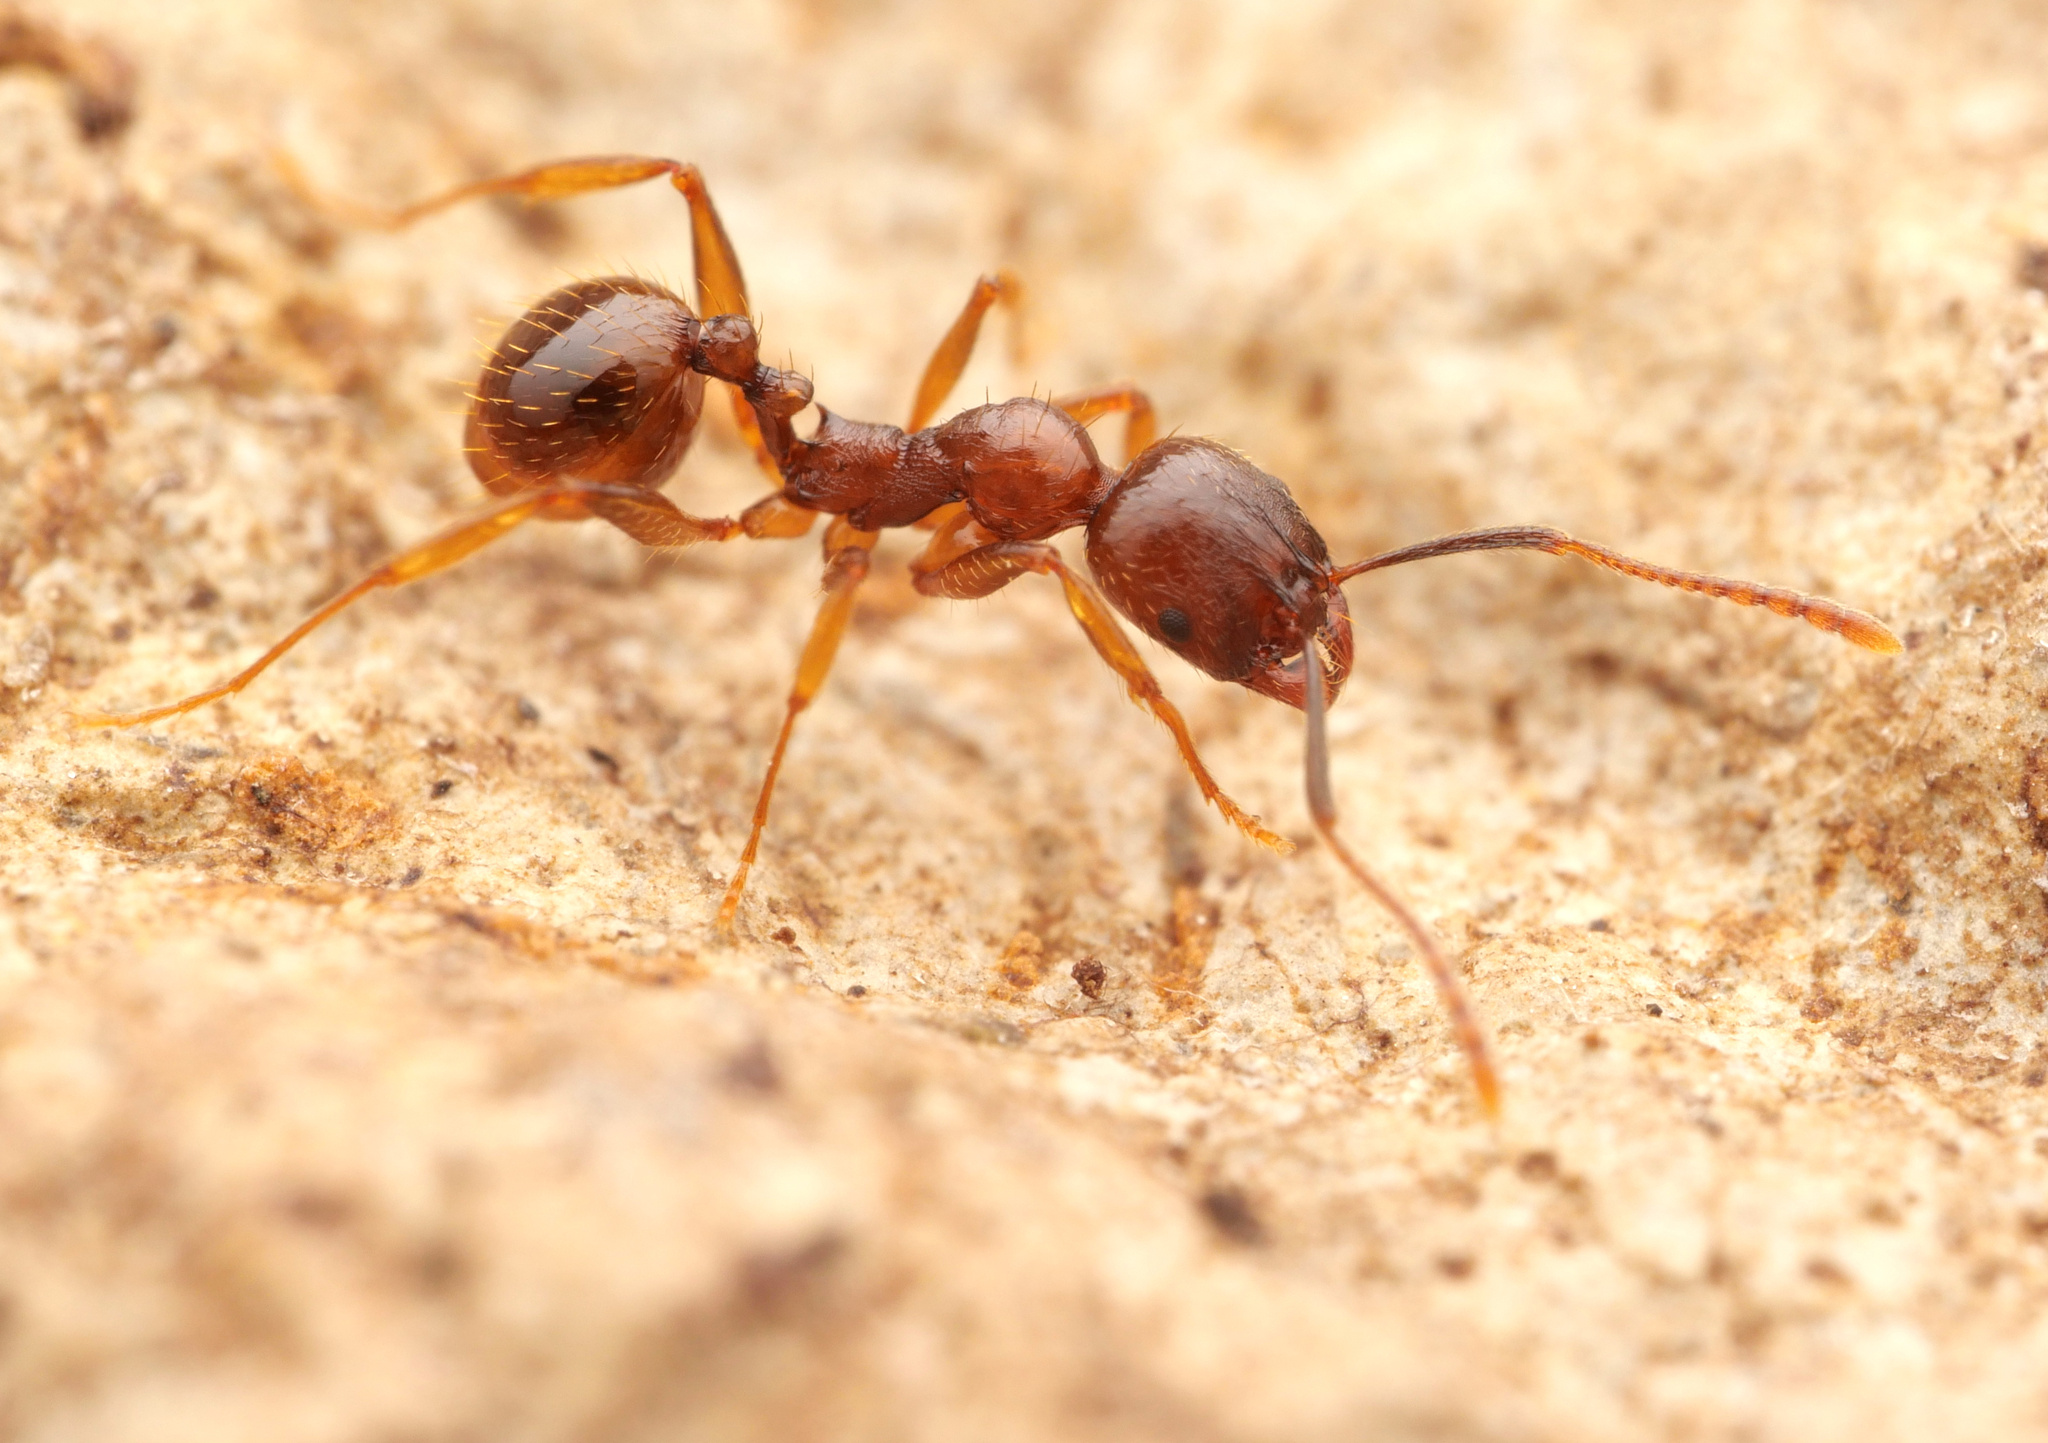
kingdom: Animalia
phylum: Arthropoda
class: Insecta
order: Hymenoptera
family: Formicidae
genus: Aphaenogaster
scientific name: Aphaenogaster subterranea
